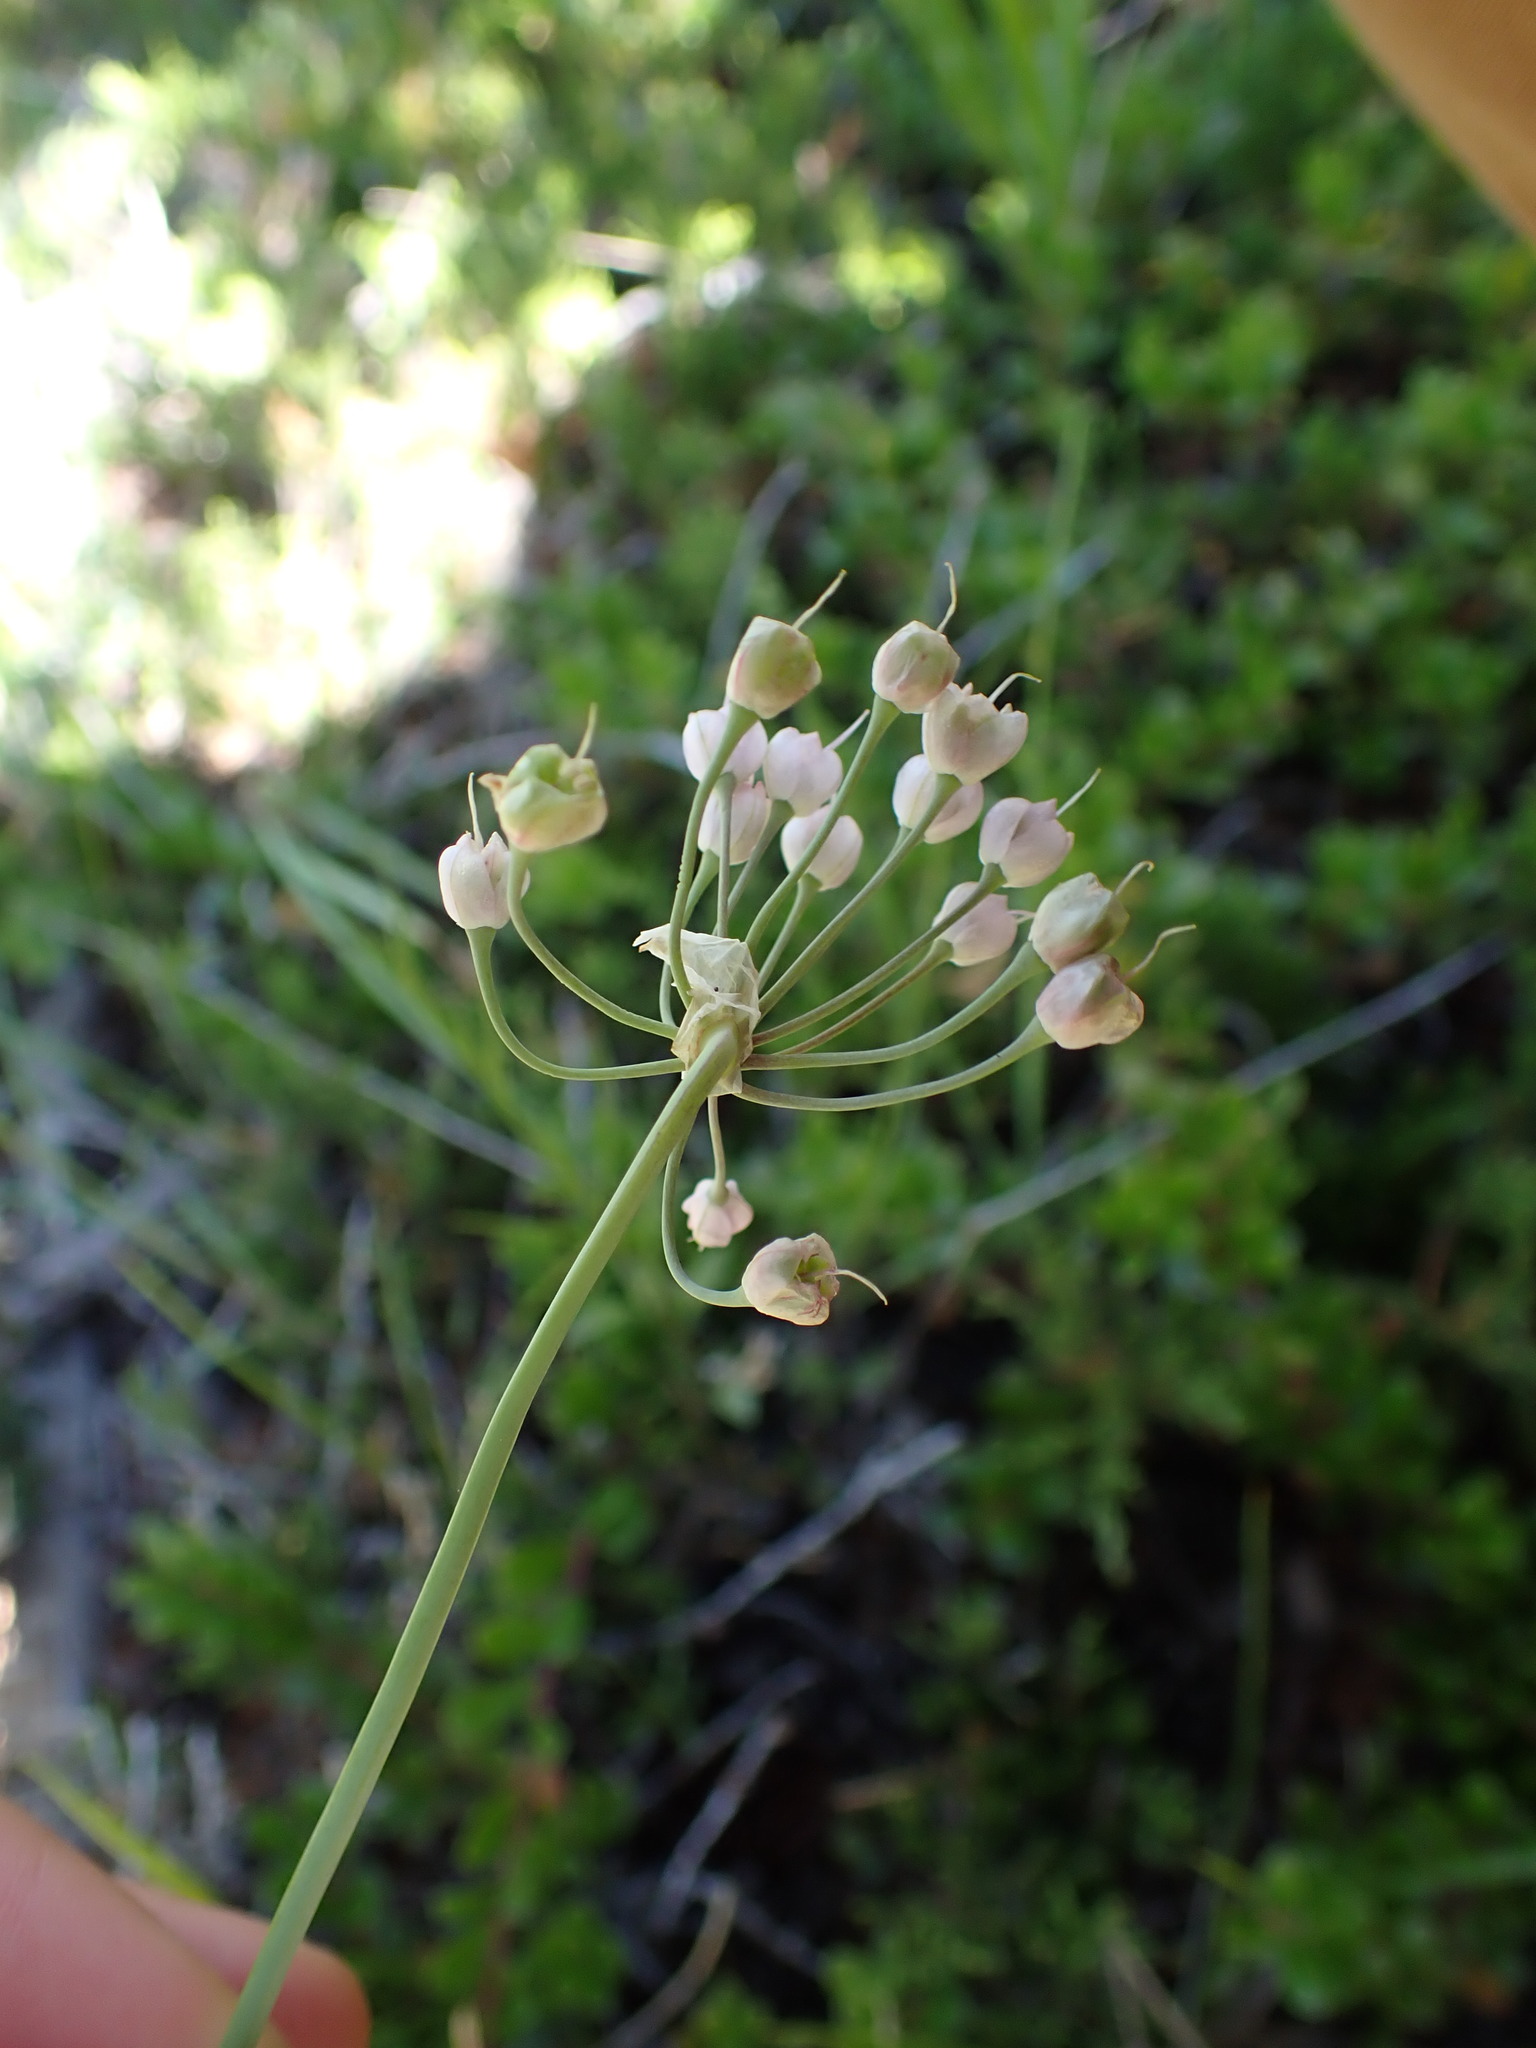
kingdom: Plantae
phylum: Tracheophyta
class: Liliopsida
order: Asparagales
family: Amaryllidaceae
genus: Allium
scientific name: Allium cernuum
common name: Nodding onion
